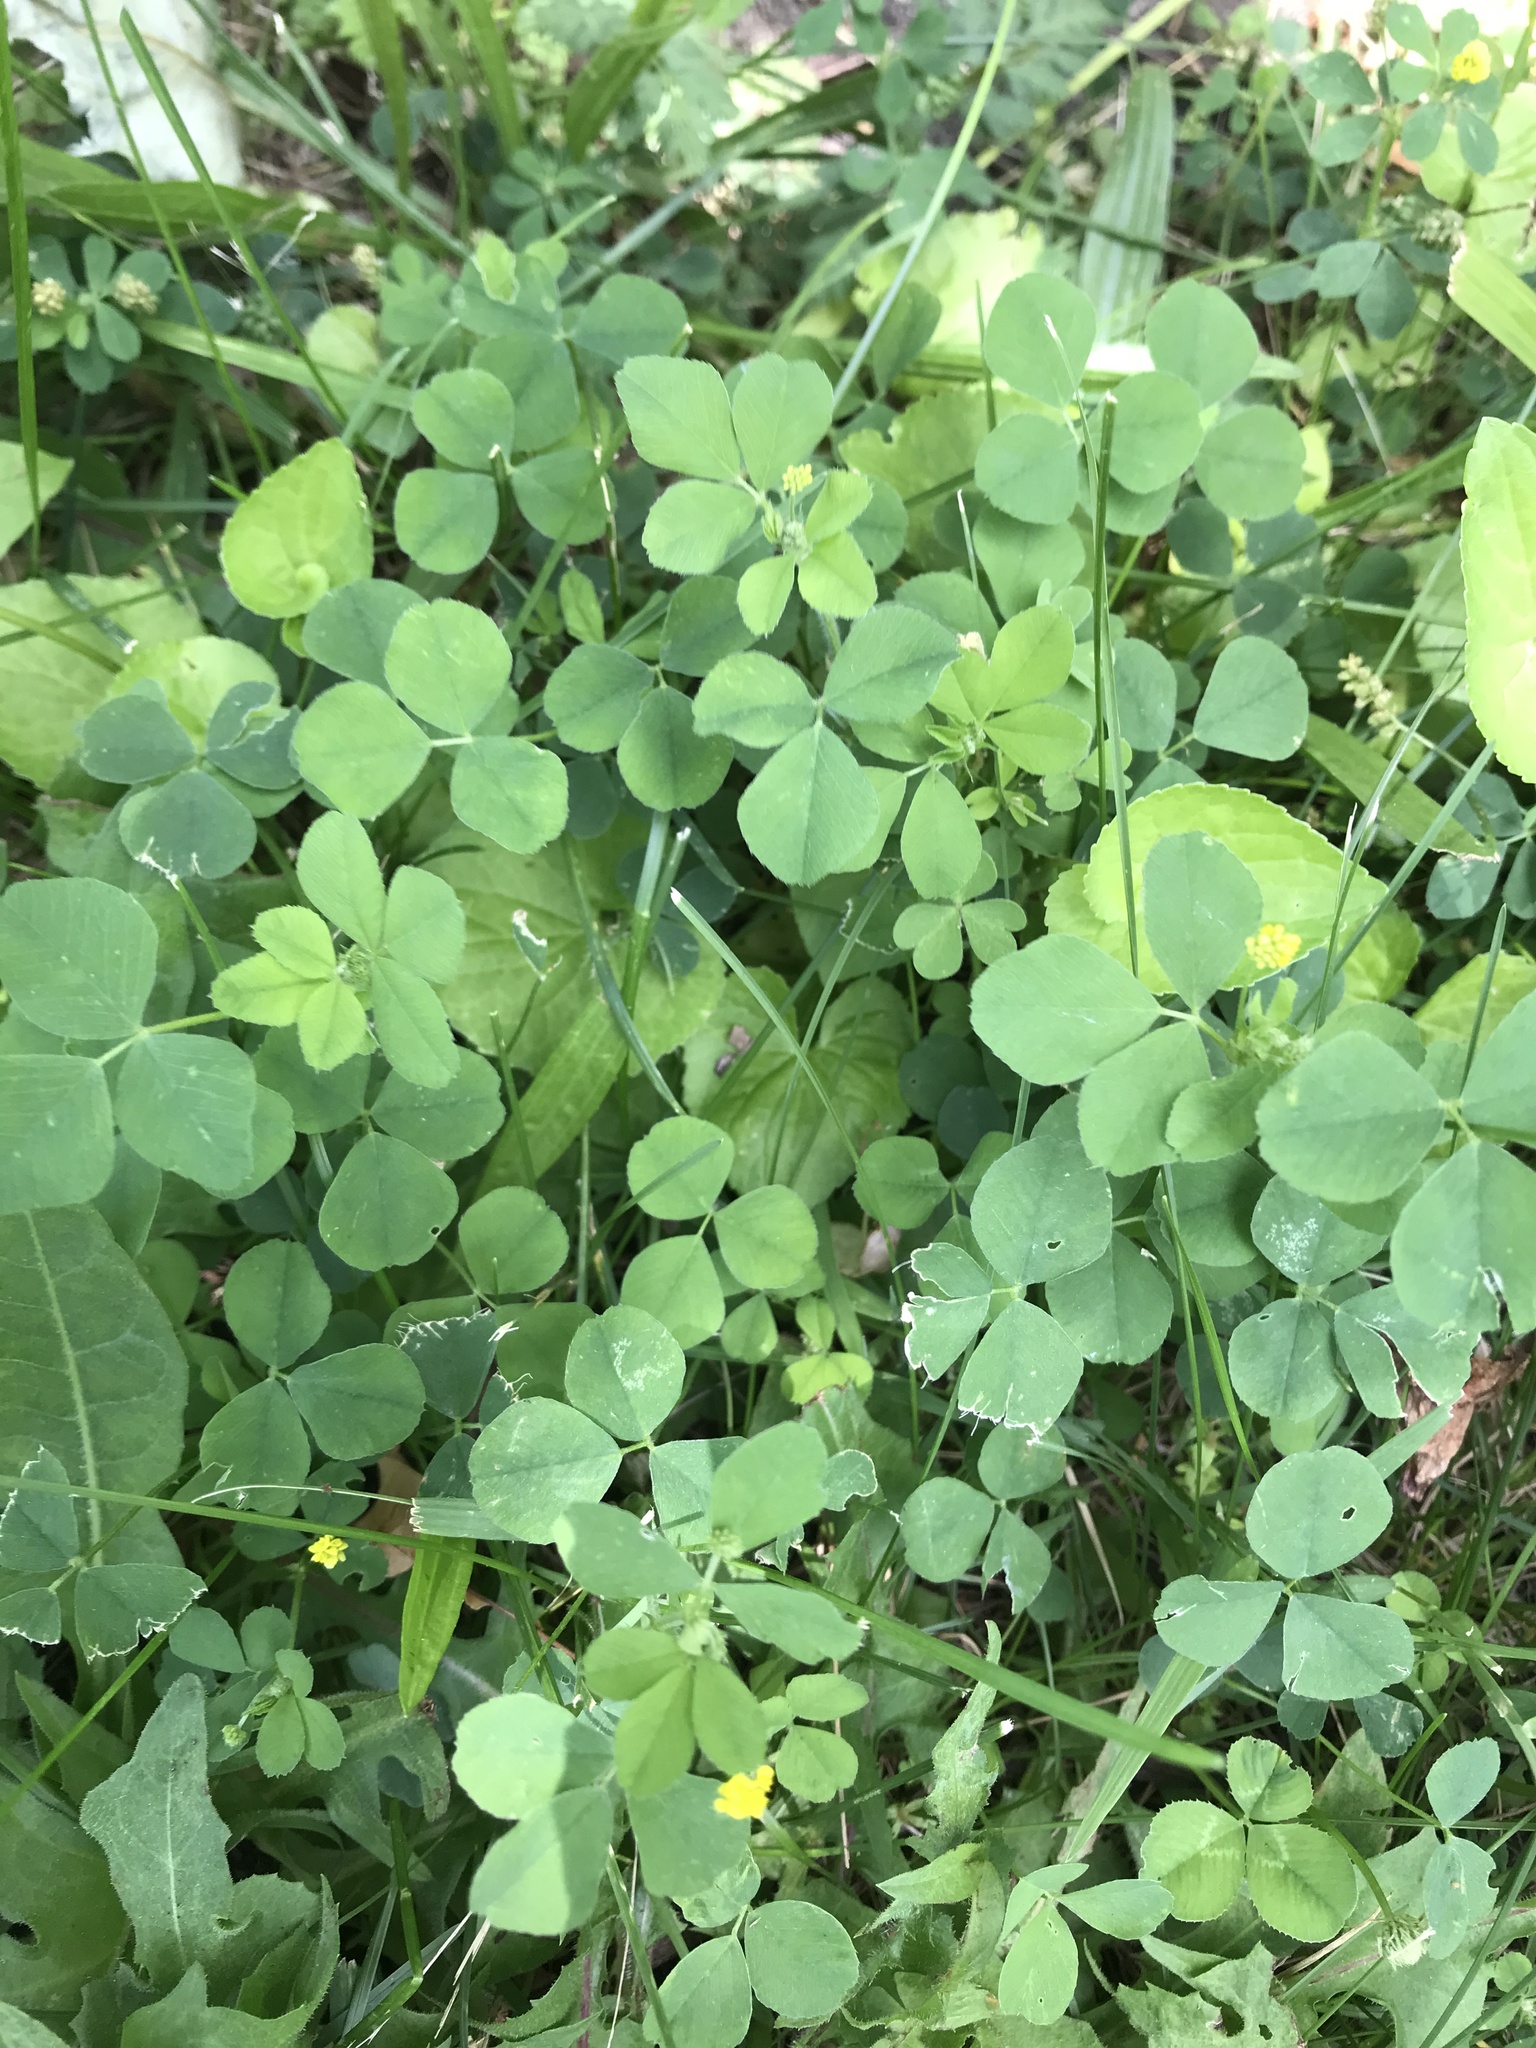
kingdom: Plantae
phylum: Tracheophyta
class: Magnoliopsida
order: Fabales
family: Fabaceae
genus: Medicago
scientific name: Medicago lupulina
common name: Black medick
